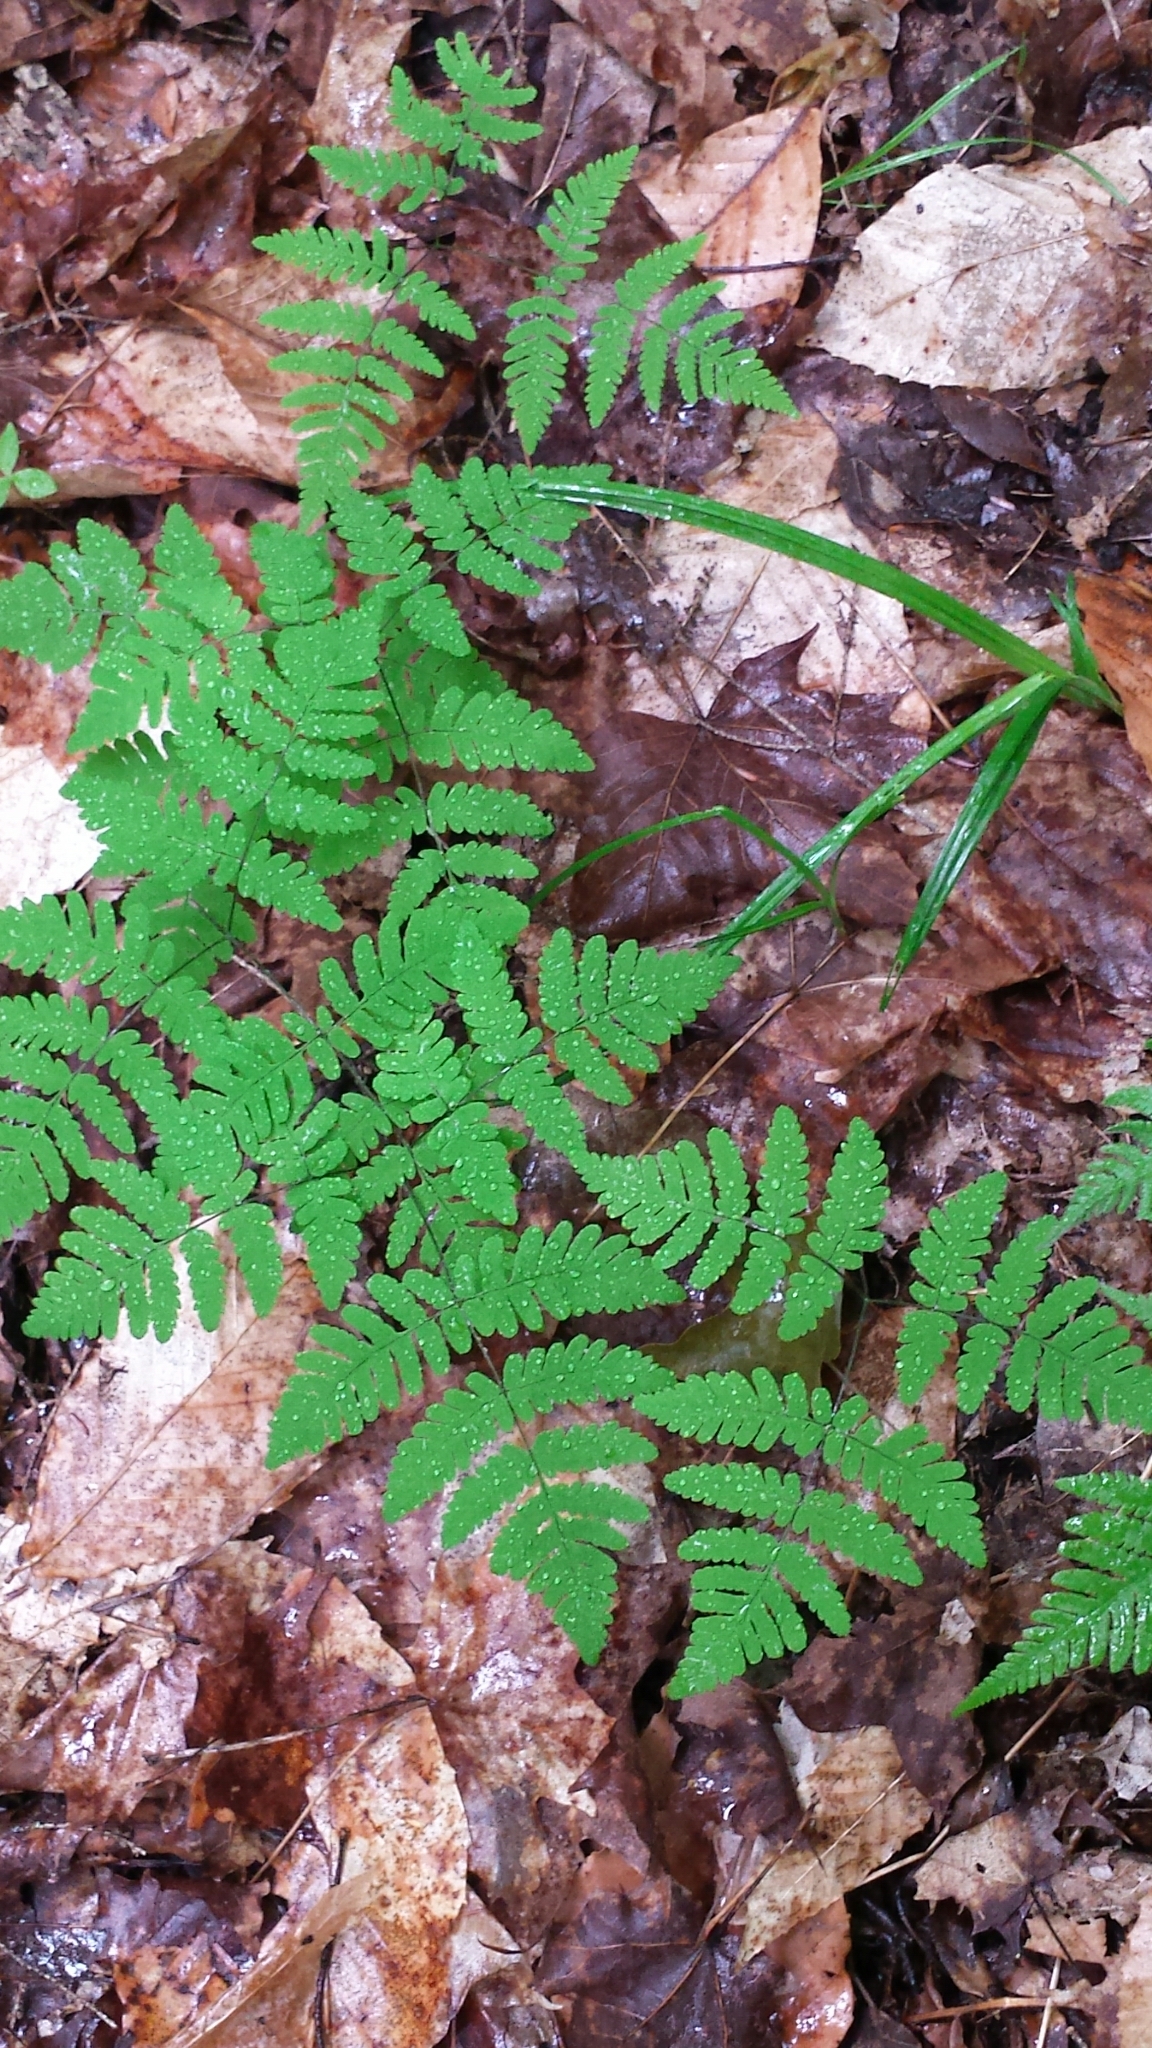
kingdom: Plantae
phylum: Tracheophyta
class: Polypodiopsida
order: Polypodiales
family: Cystopteridaceae
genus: Gymnocarpium
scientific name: Gymnocarpium dryopteris
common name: Oak fern
